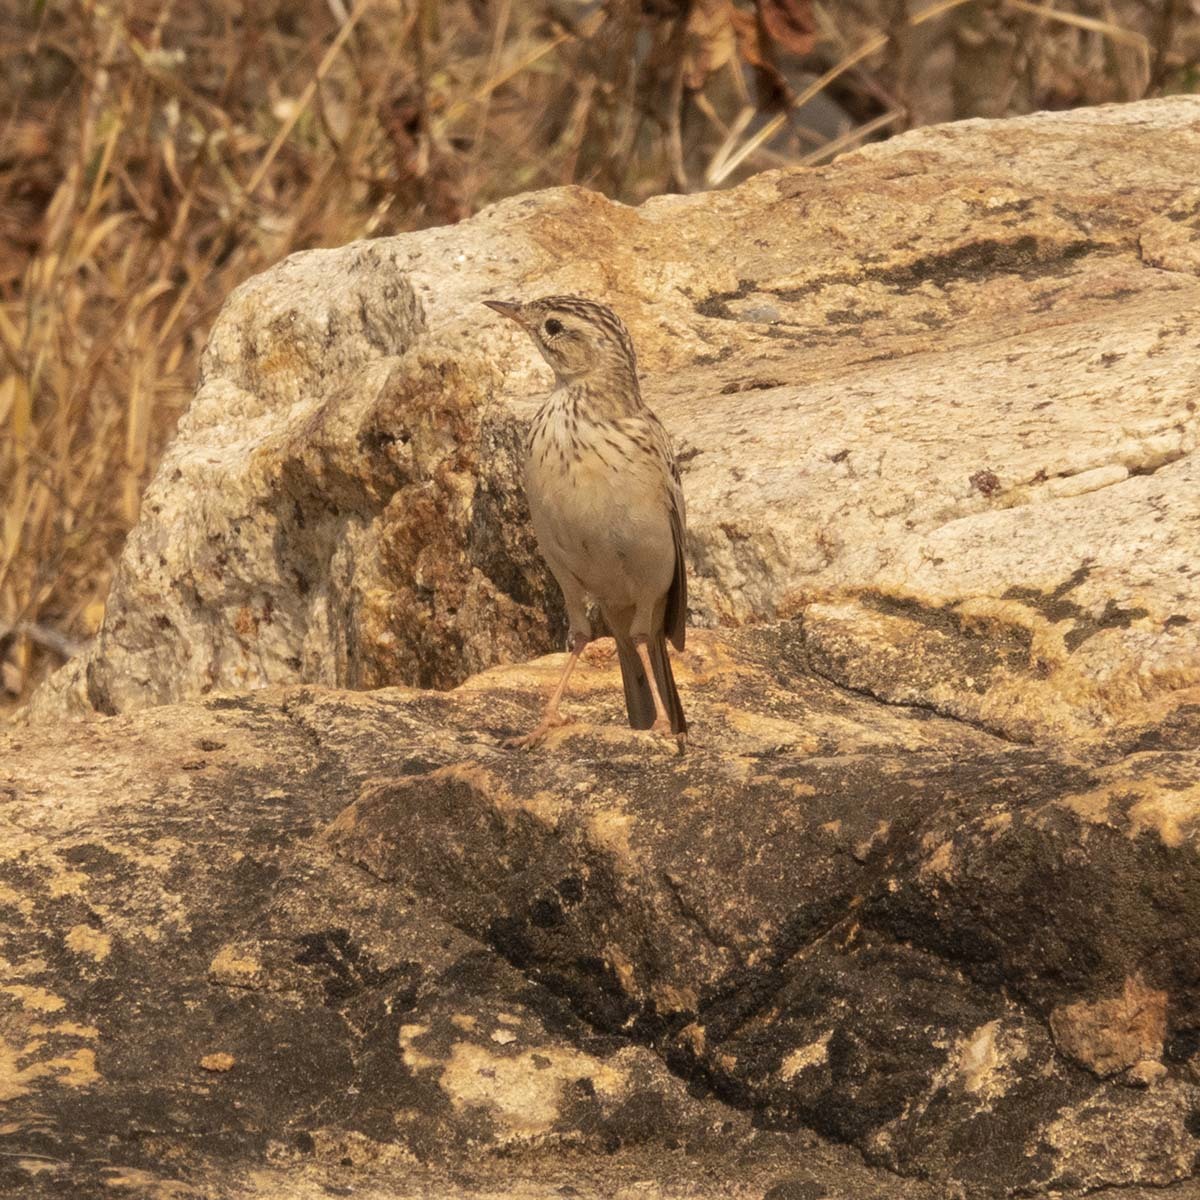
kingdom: Animalia
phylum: Chordata
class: Aves
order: Passeriformes
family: Motacillidae
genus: Anthus
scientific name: Anthus rufulus
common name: Paddyfield pipit
